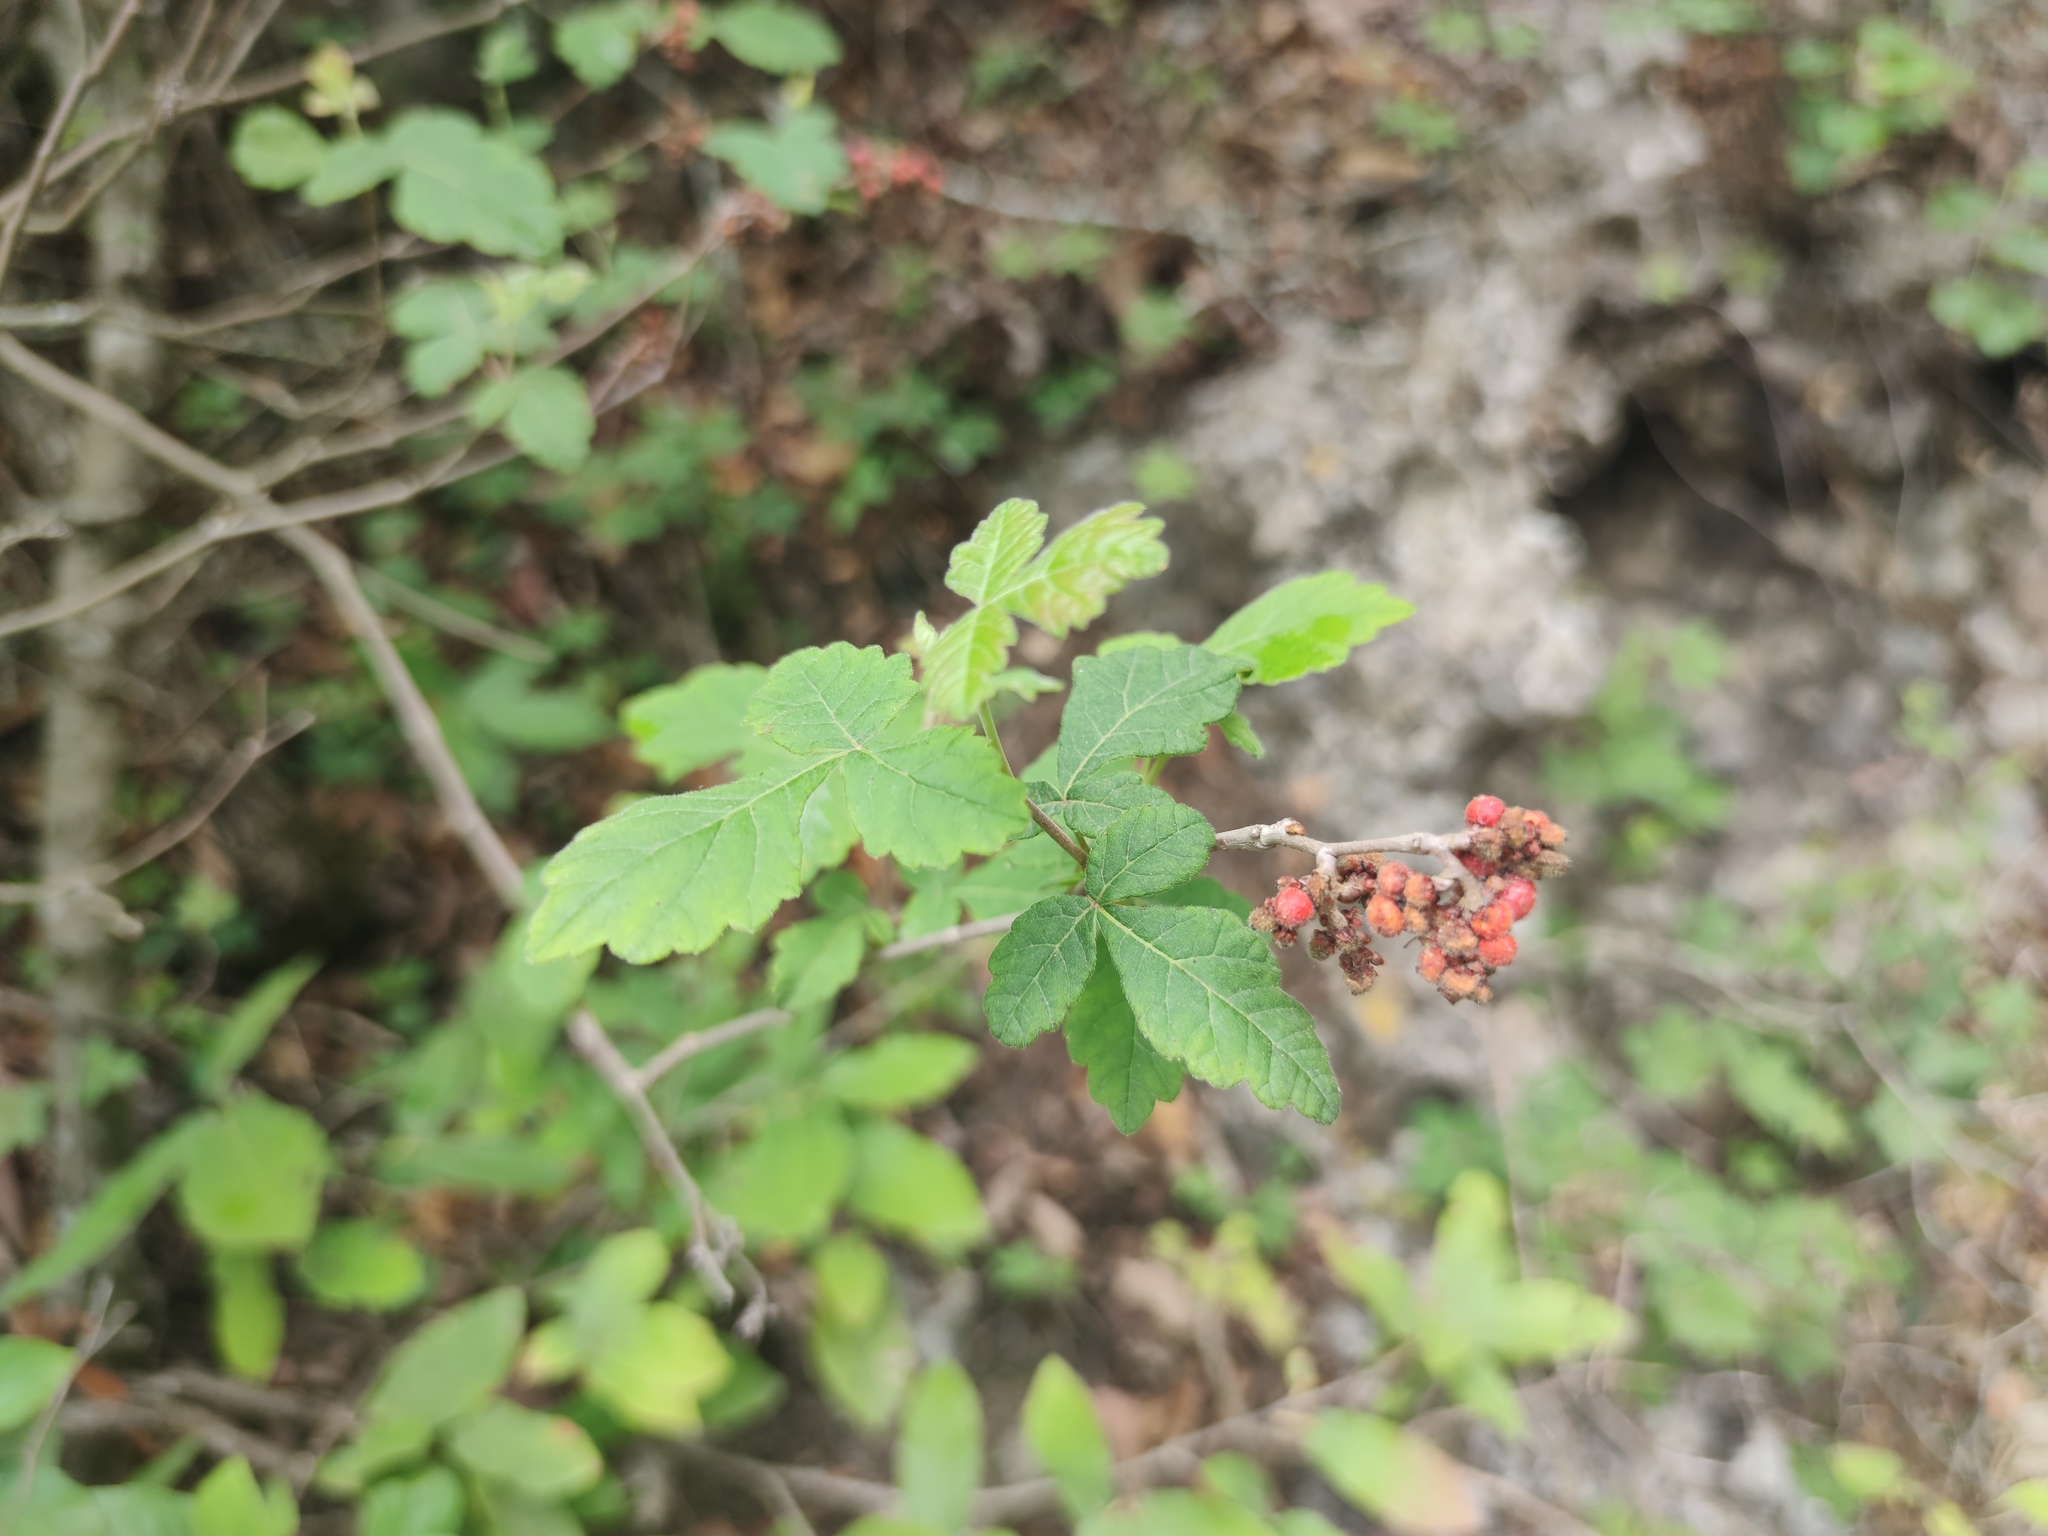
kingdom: Plantae
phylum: Tracheophyta
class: Magnoliopsida
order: Sapindales
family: Anacardiaceae
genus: Rhus
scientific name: Rhus aromatica
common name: Aromatic sumac
